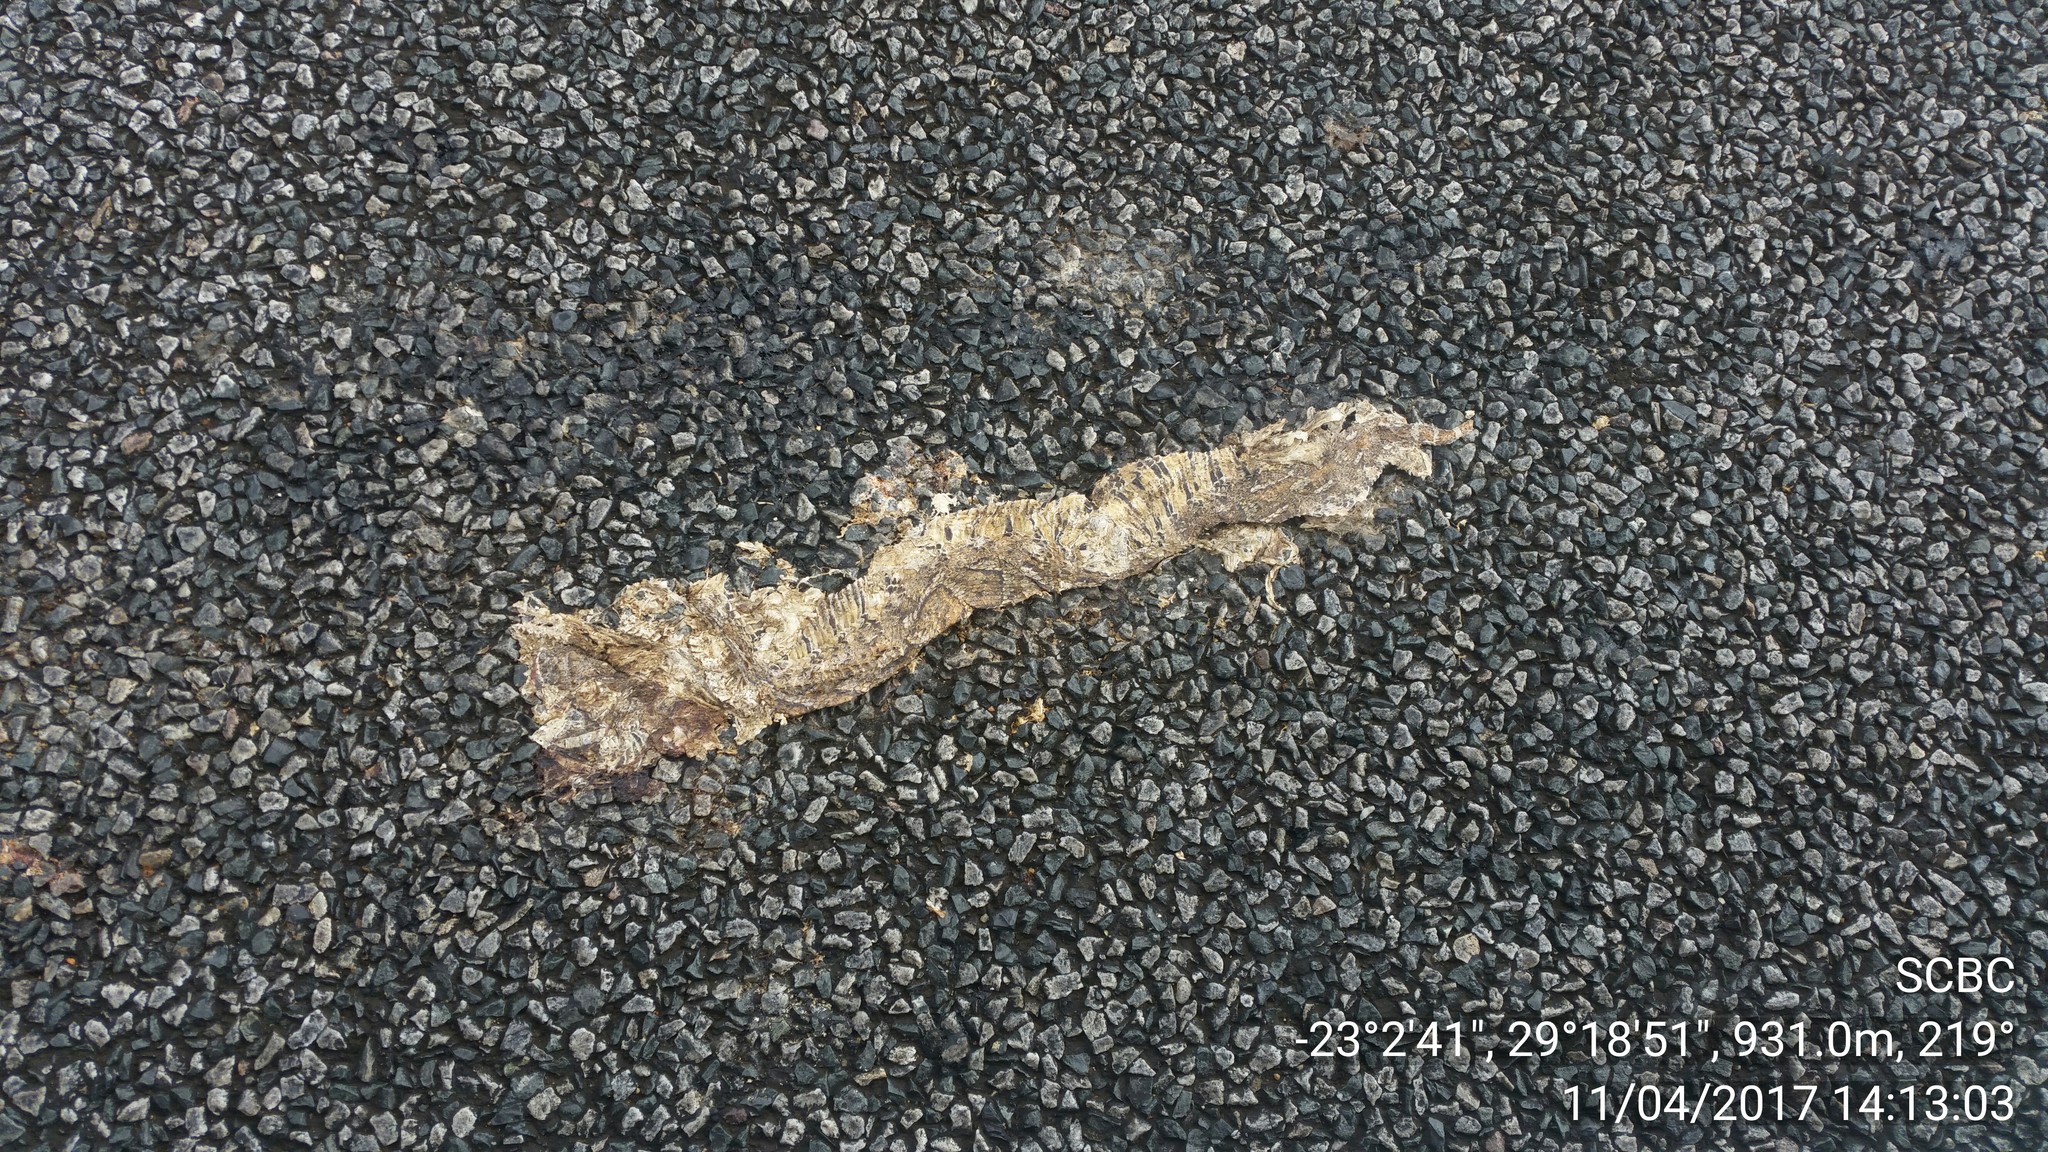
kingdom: Animalia
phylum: Chordata
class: Squamata
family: Viperidae
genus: Bitis
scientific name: Bitis arietans
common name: Puff adder
